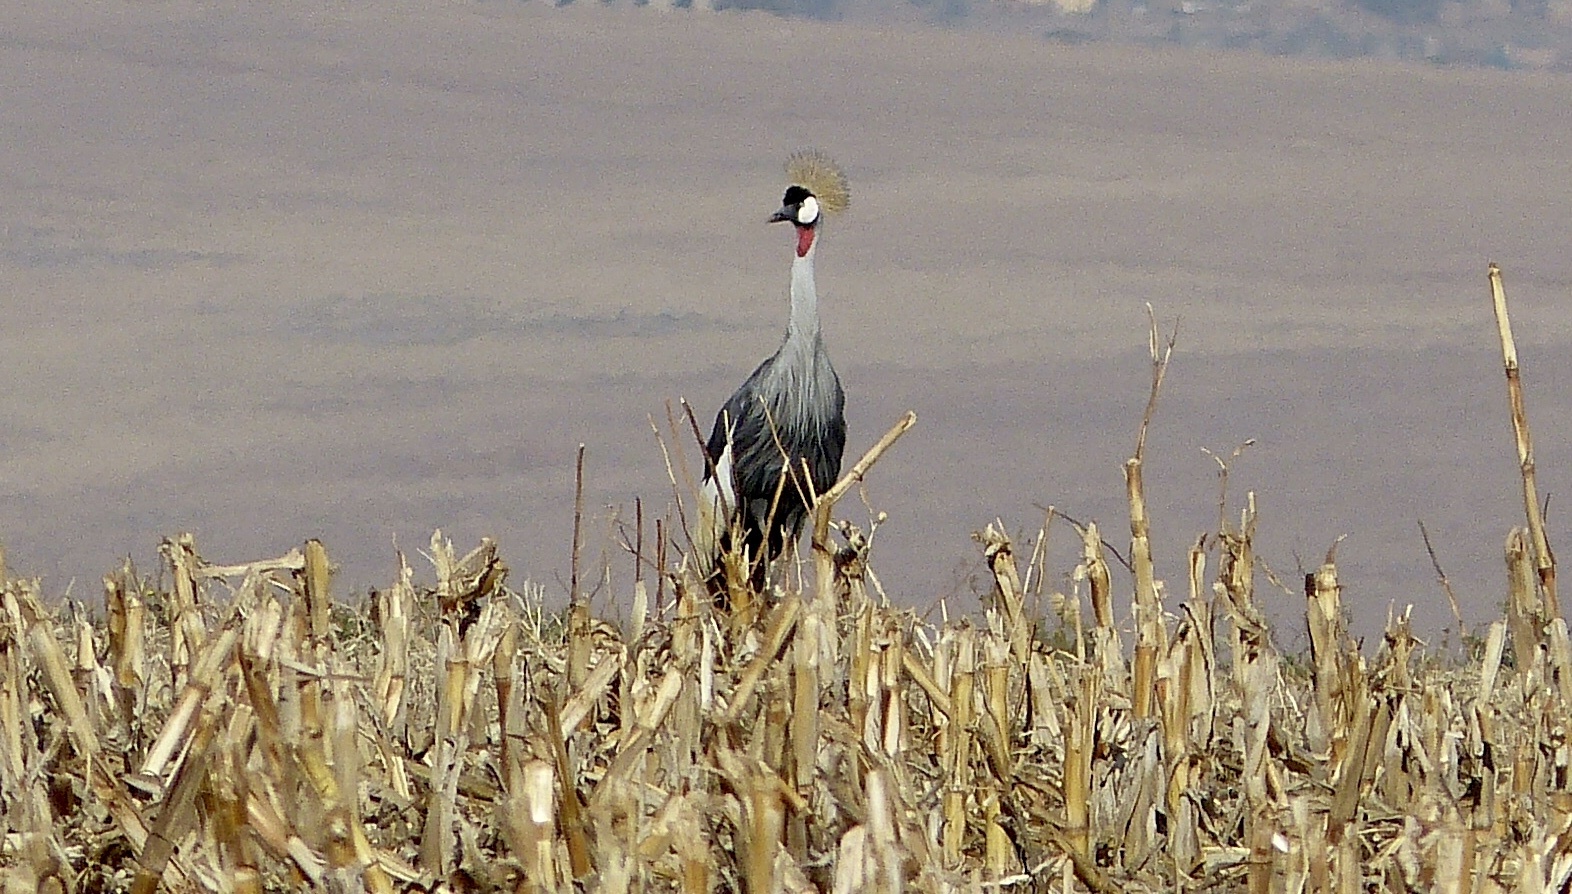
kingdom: Animalia
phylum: Chordata
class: Aves
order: Gruiformes
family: Gruidae
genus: Balearica
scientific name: Balearica regulorum
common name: Grey crowned crane
